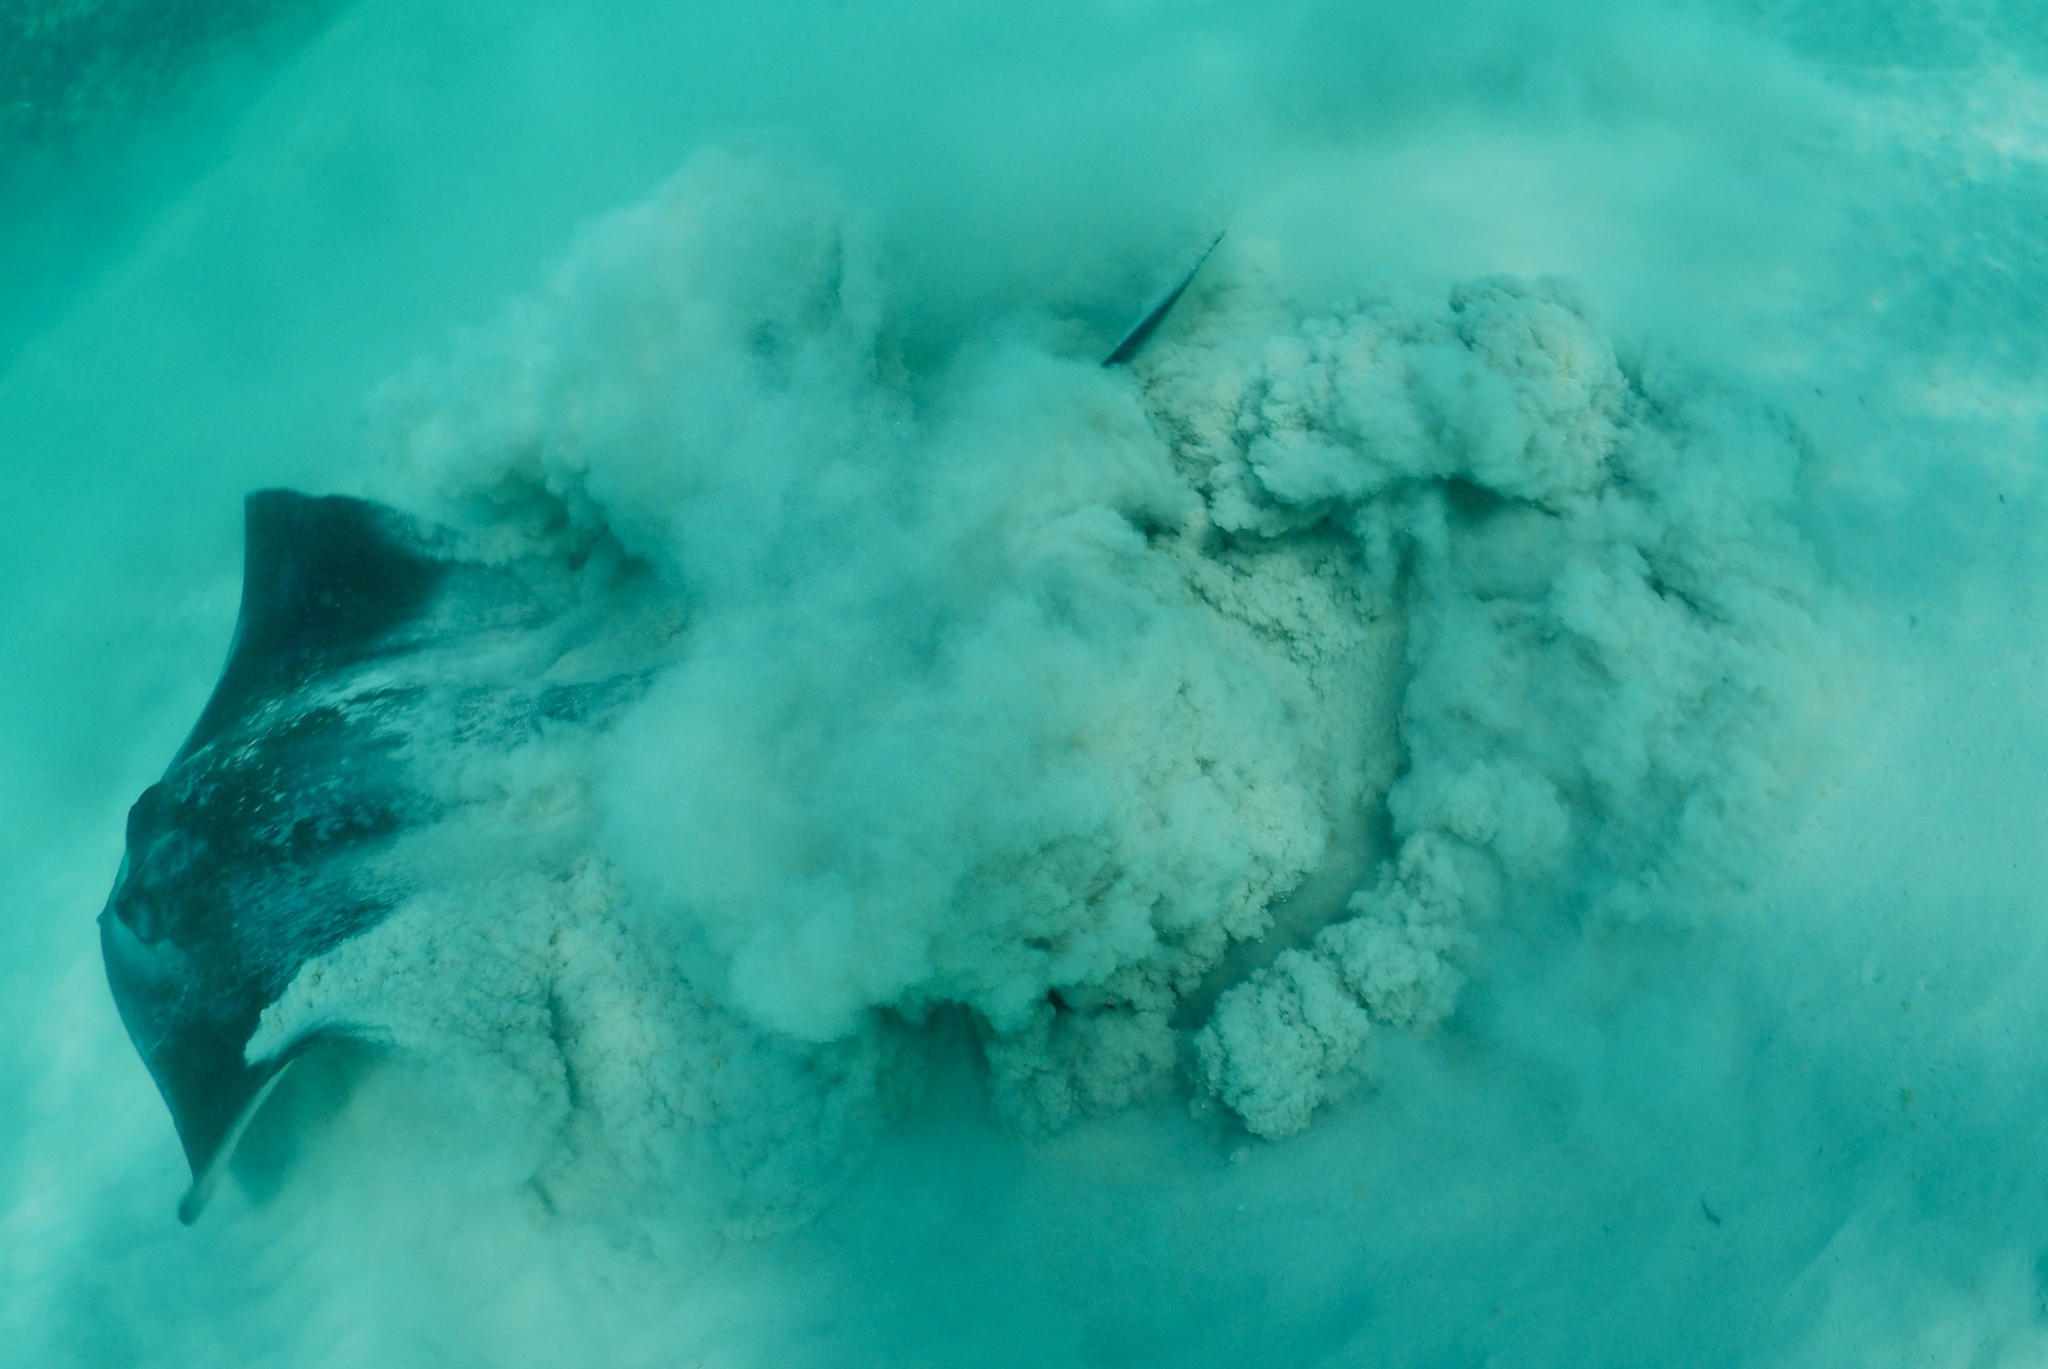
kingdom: Animalia
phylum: Chordata
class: Elasmobranchii
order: Myliobatiformes
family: Dasyatidae
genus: Pastinachus
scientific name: Pastinachus sephen
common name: Cowtail ray
